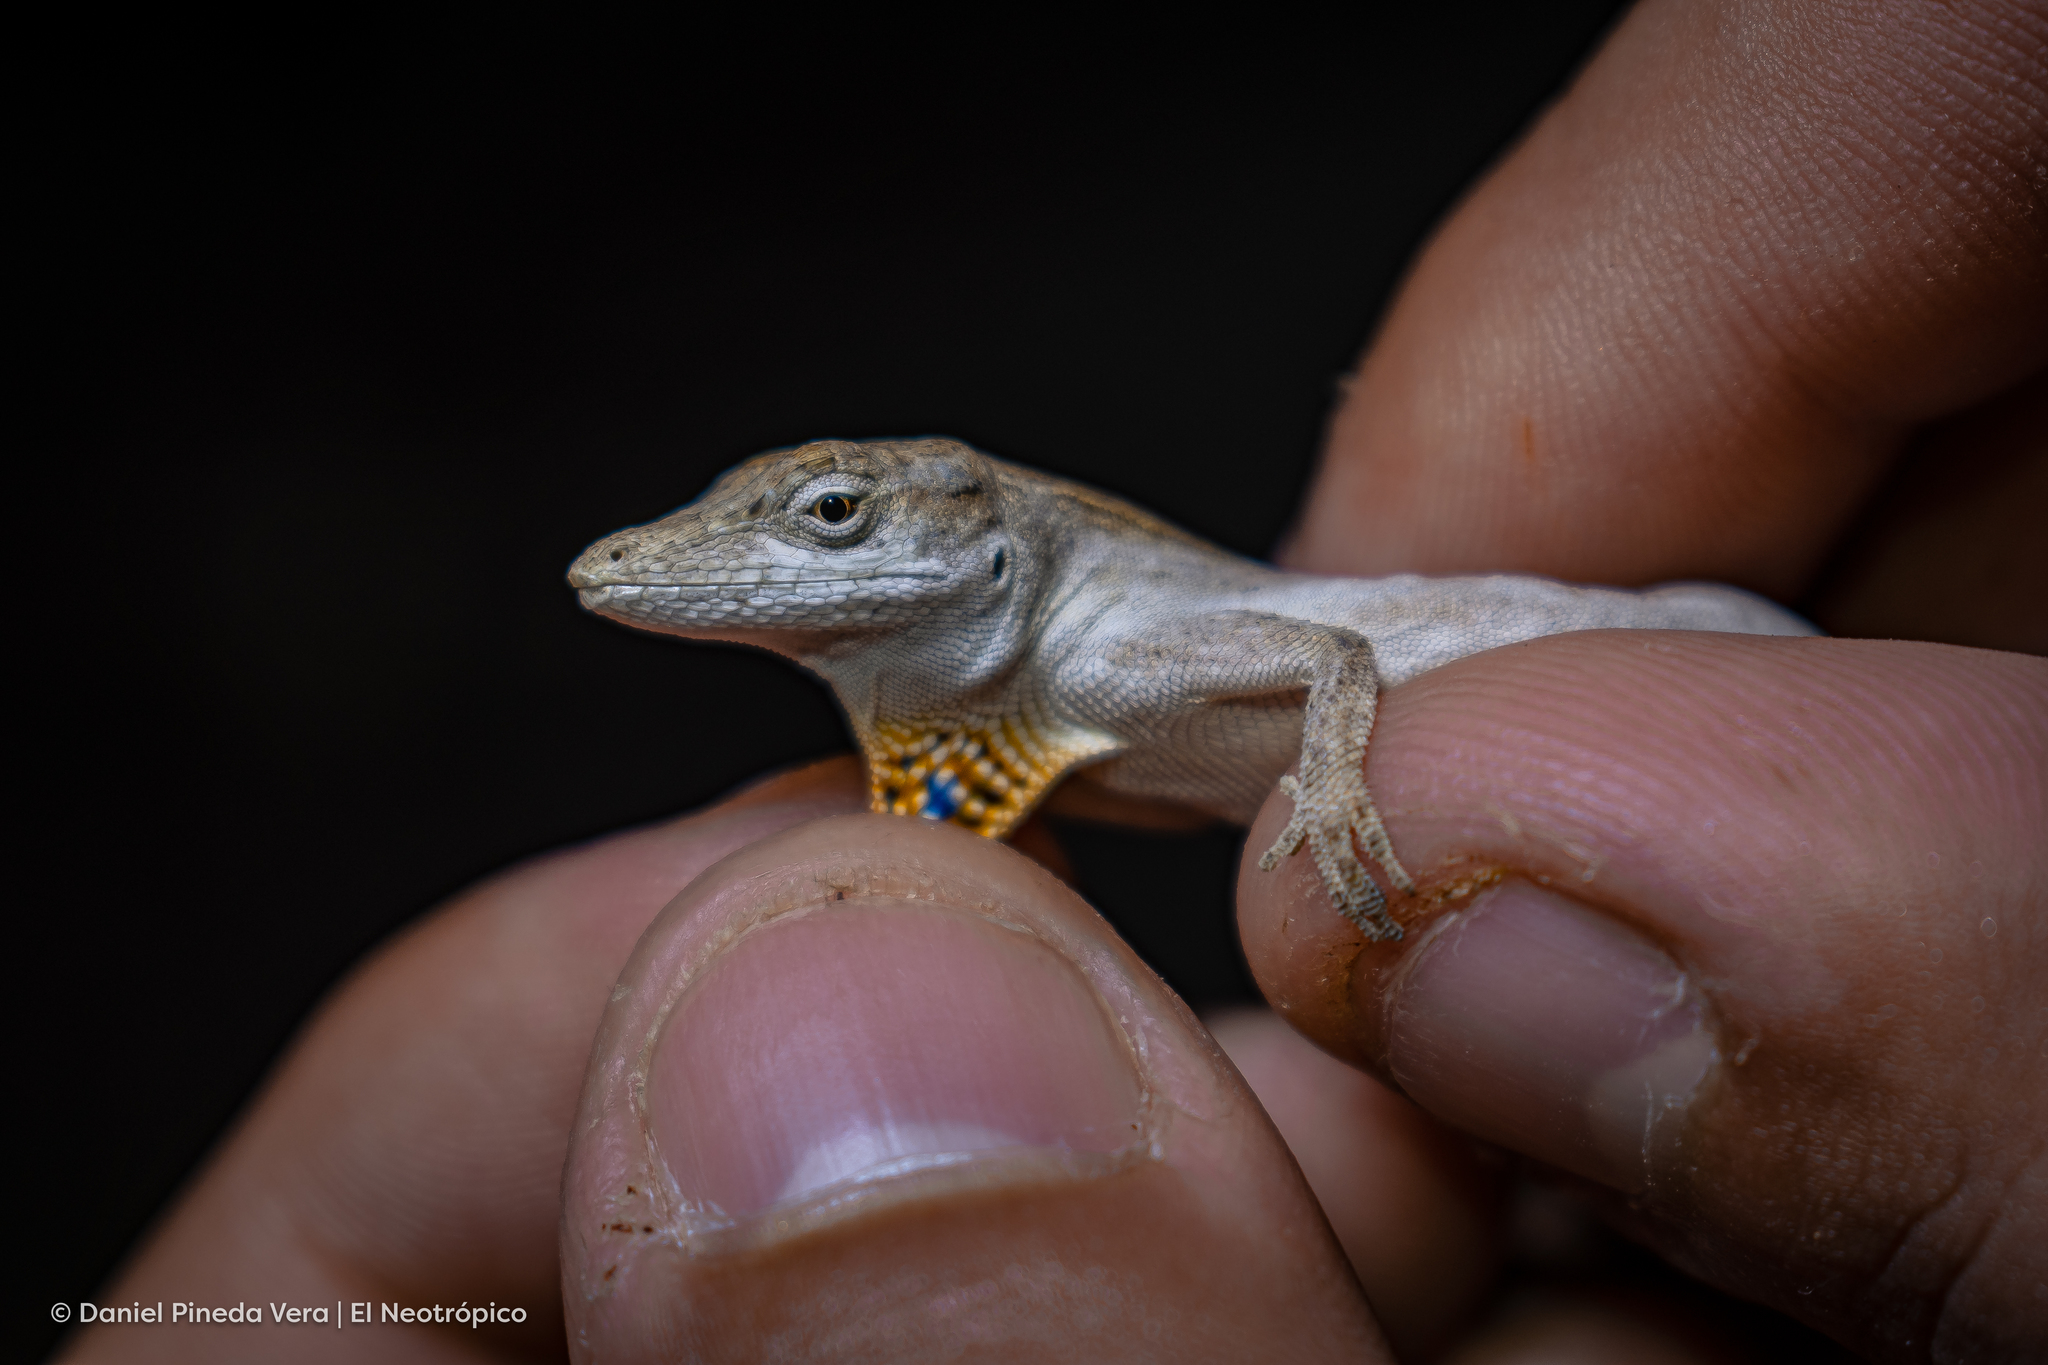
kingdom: Animalia
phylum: Chordata
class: Squamata
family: Dactyloidae
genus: Anolis
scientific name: Anolis ustus
